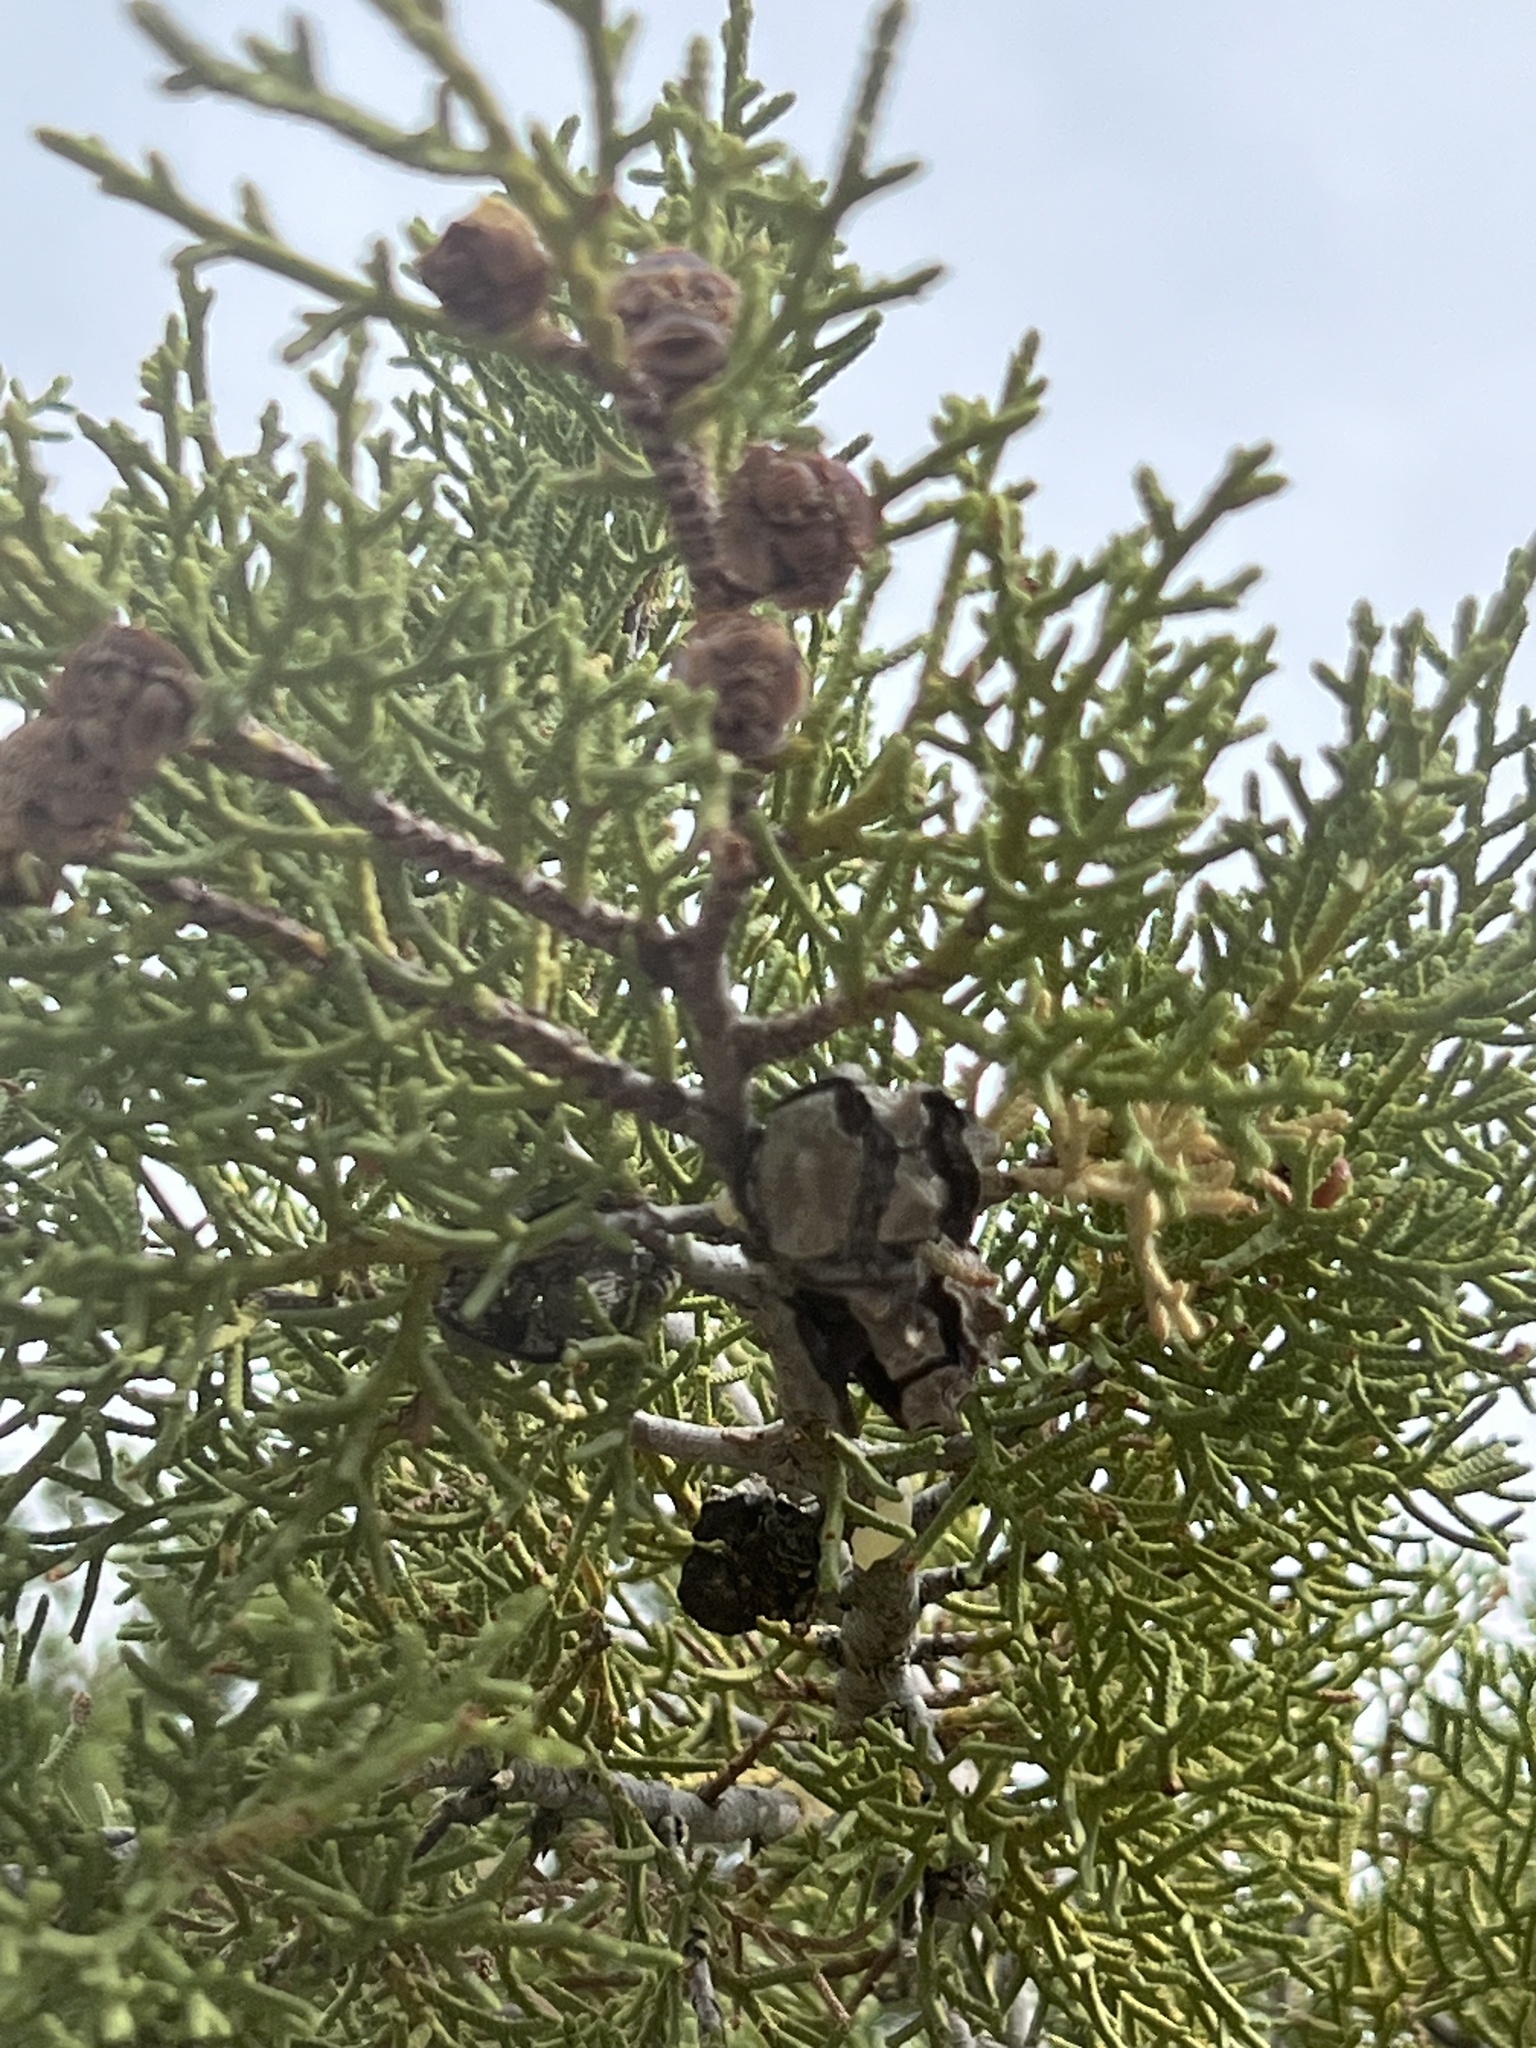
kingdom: Plantae
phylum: Tracheophyta
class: Pinopsida
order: Pinales
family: Cupressaceae
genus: Cupressus
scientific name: Cupressus arizonica
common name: Arizona cypress
